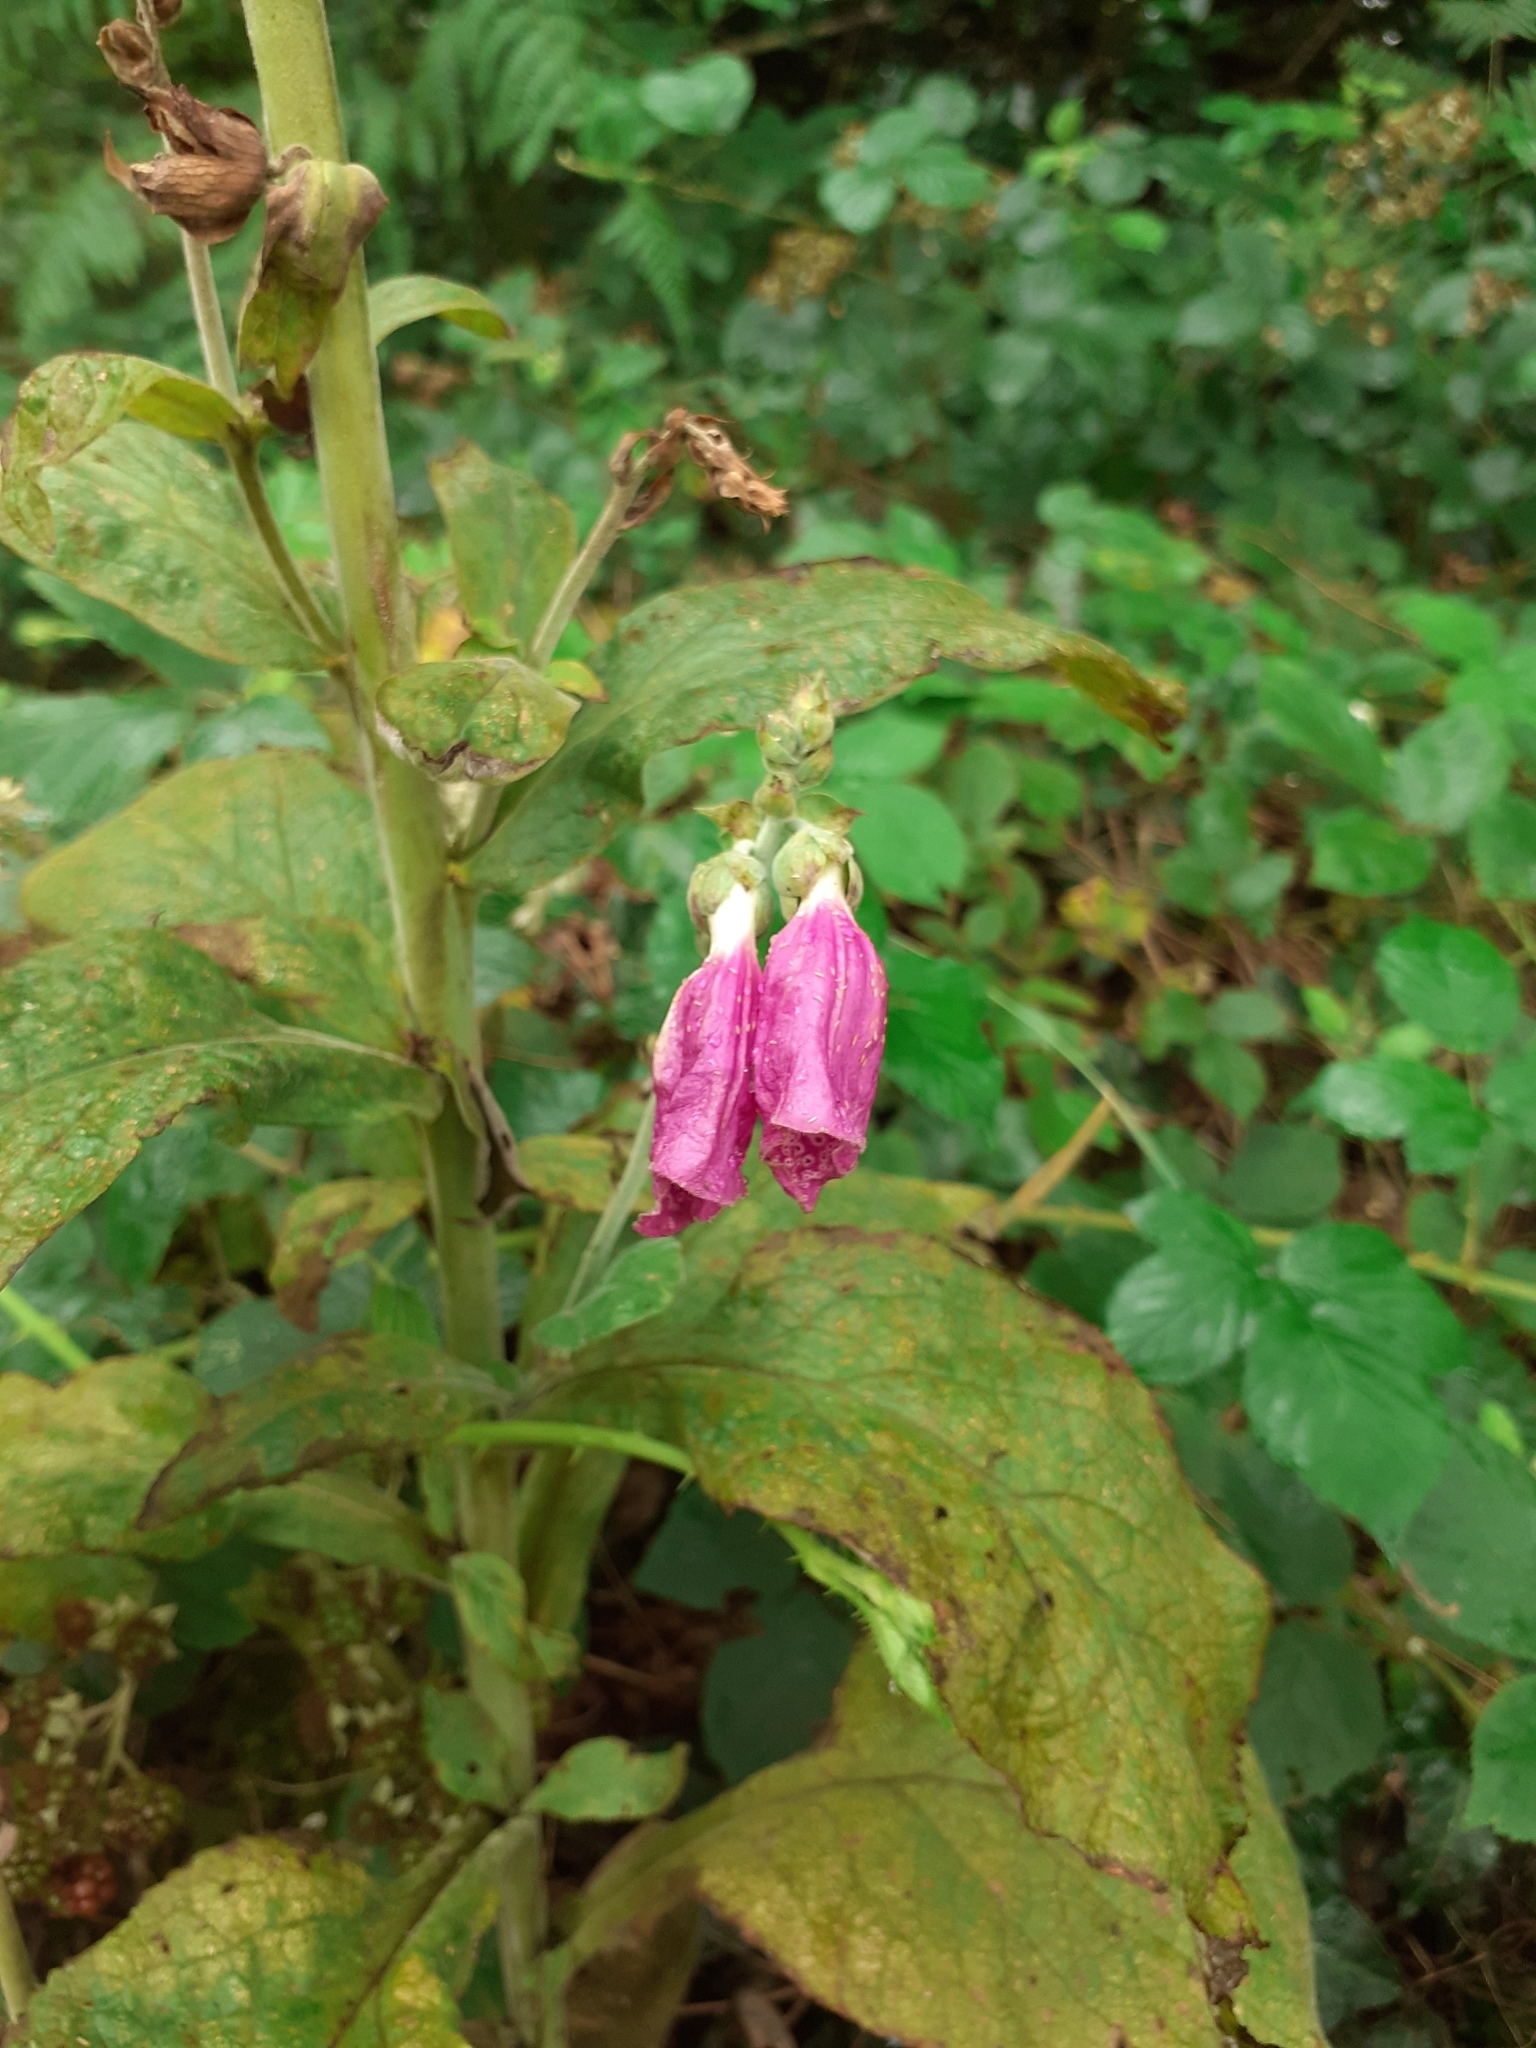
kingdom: Plantae
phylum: Tracheophyta
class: Magnoliopsida
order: Lamiales
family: Plantaginaceae
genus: Digitalis
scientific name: Digitalis purpurea
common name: Foxglove
